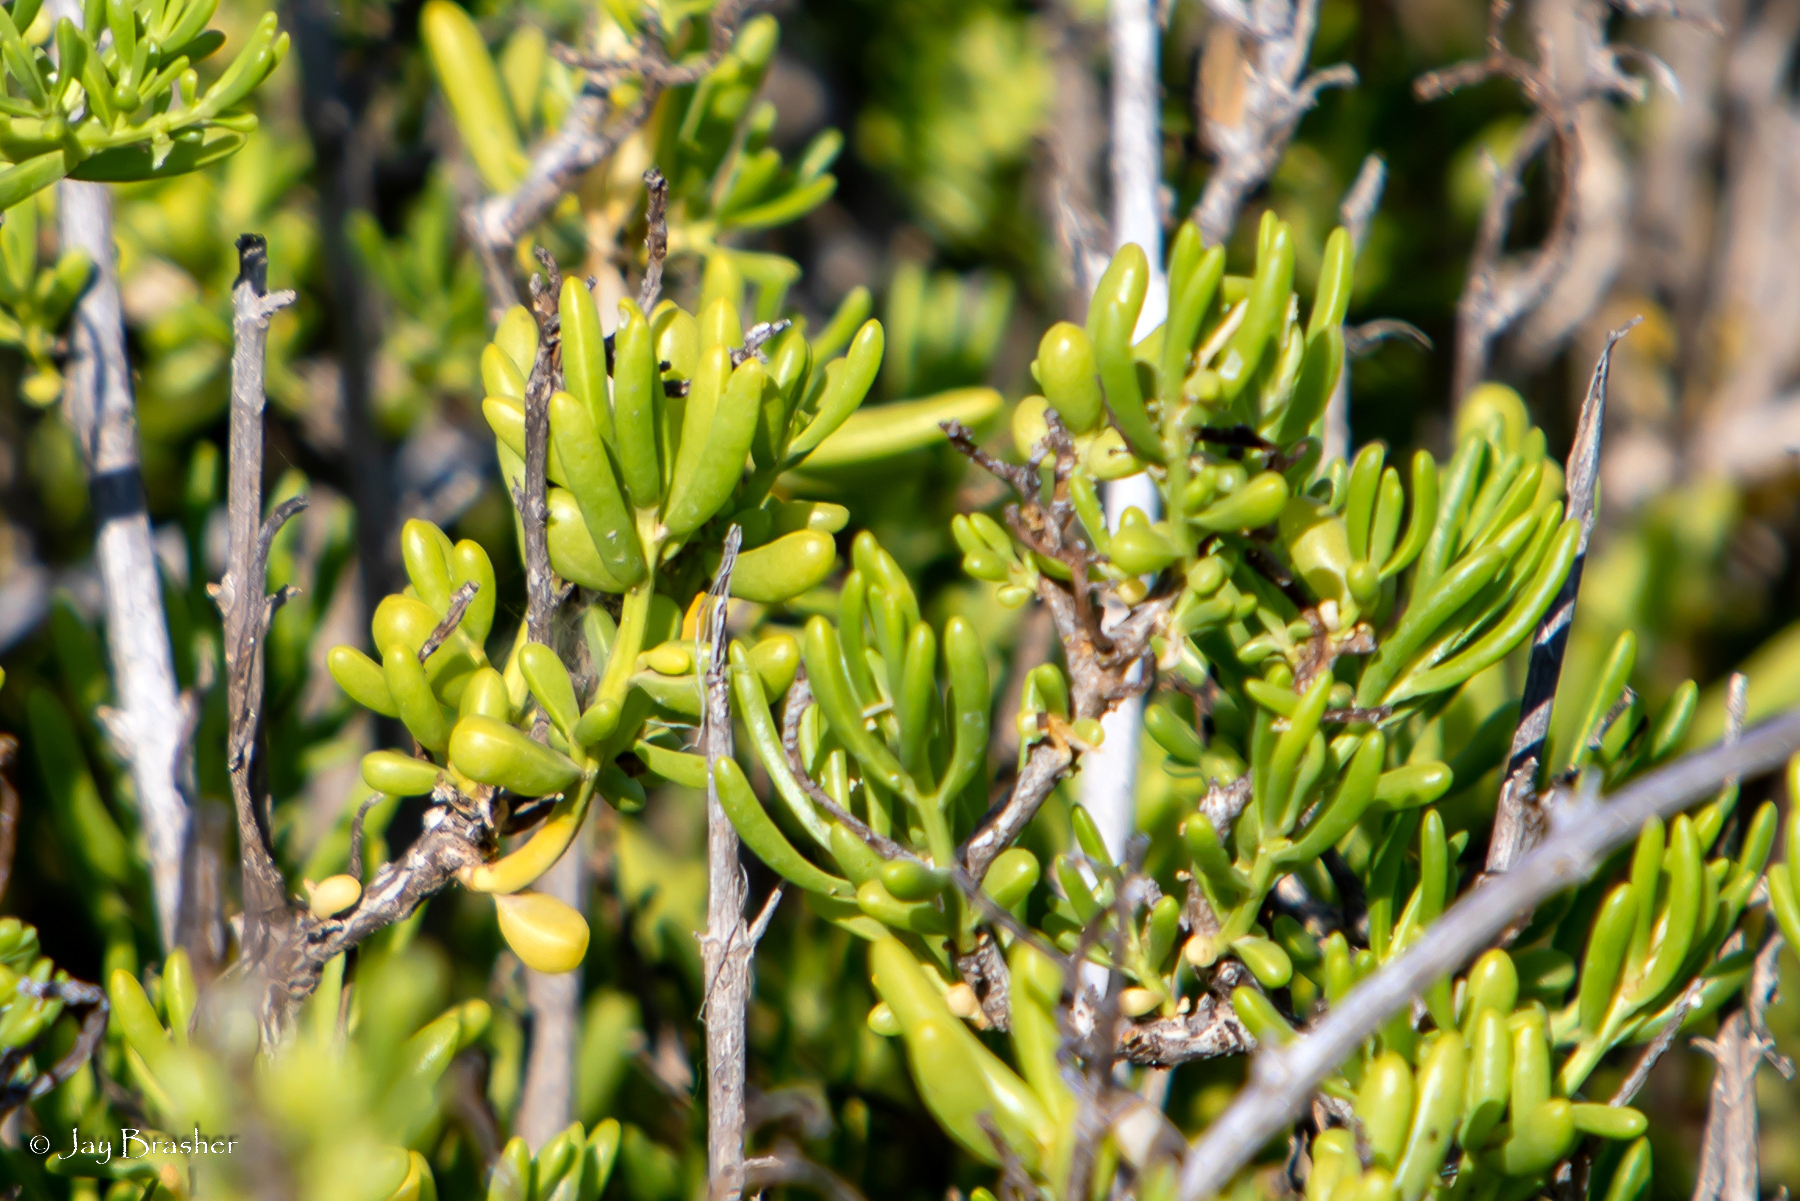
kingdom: Plantae
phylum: Tracheophyta
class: Magnoliopsida
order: Brassicales
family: Bataceae
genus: Batis
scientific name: Batis maritima
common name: Turtleweed
